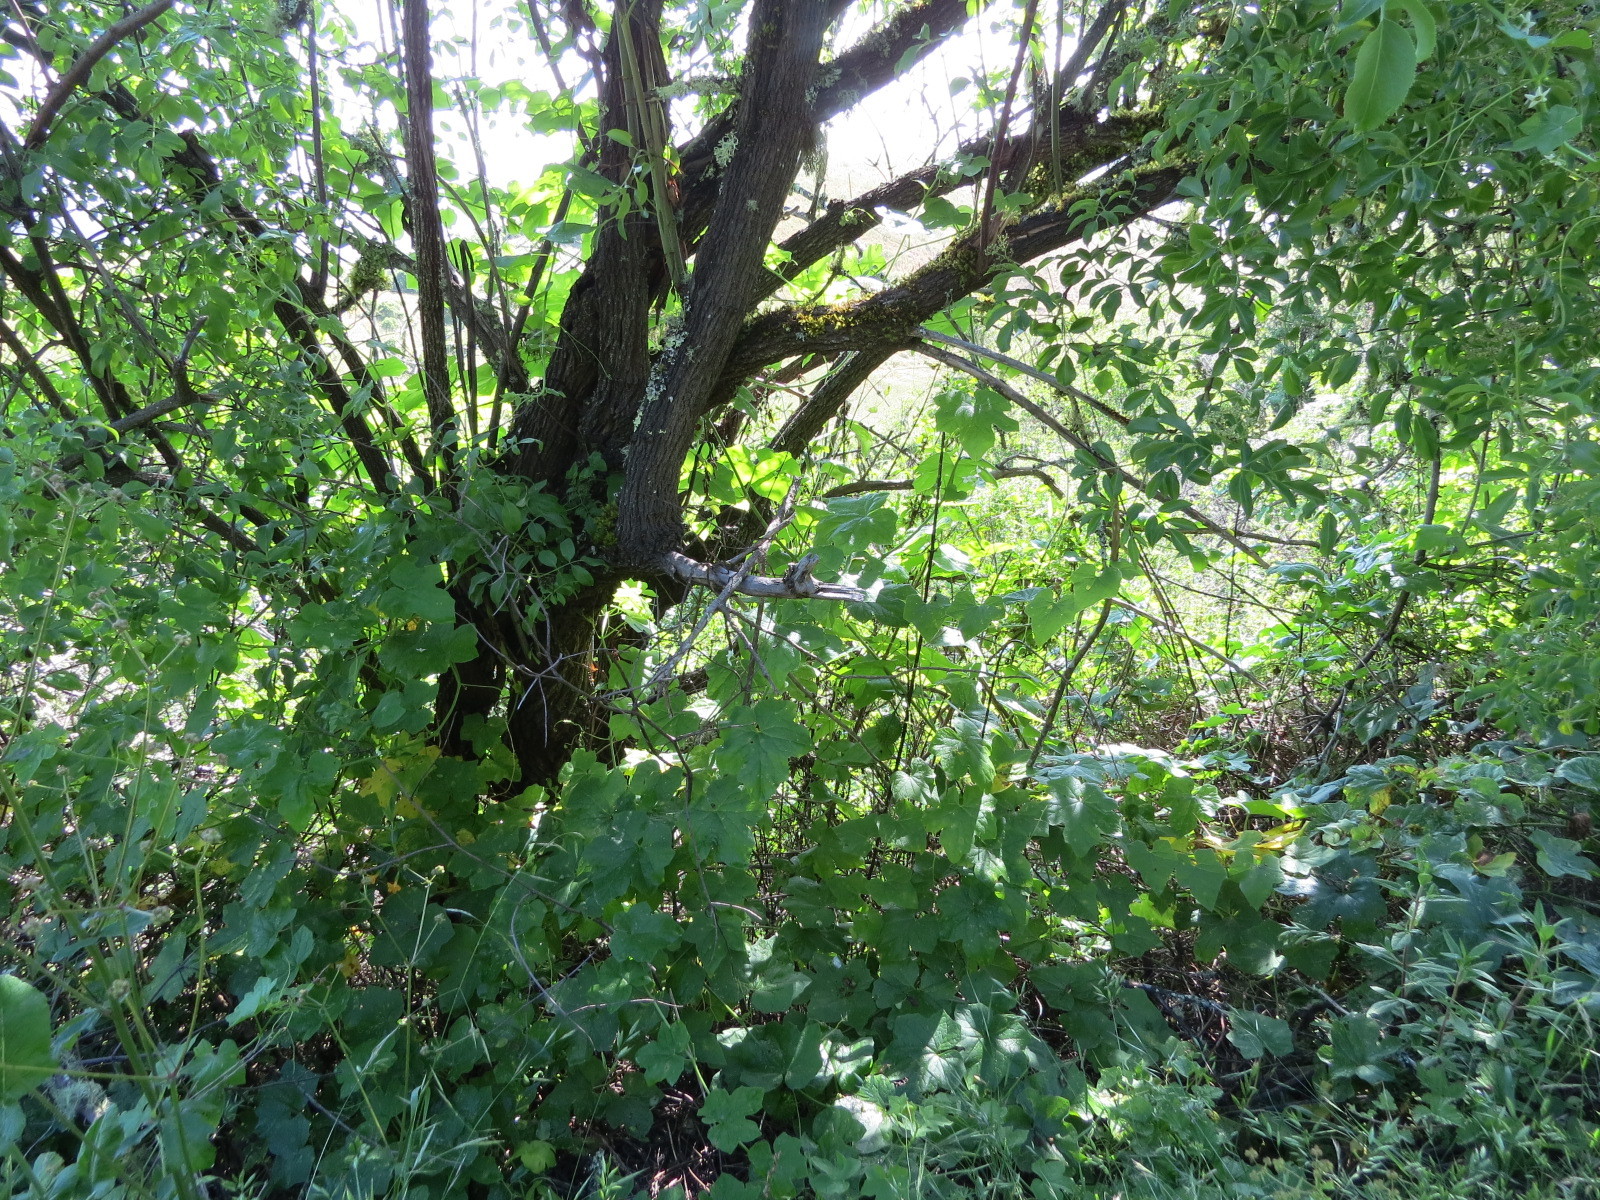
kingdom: Plantae
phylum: Tracheophyta
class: Magnoliopsida
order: Cucurbitales
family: Cucurbitaceae
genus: Marah
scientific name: Marah oregana
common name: Coastal manroot
